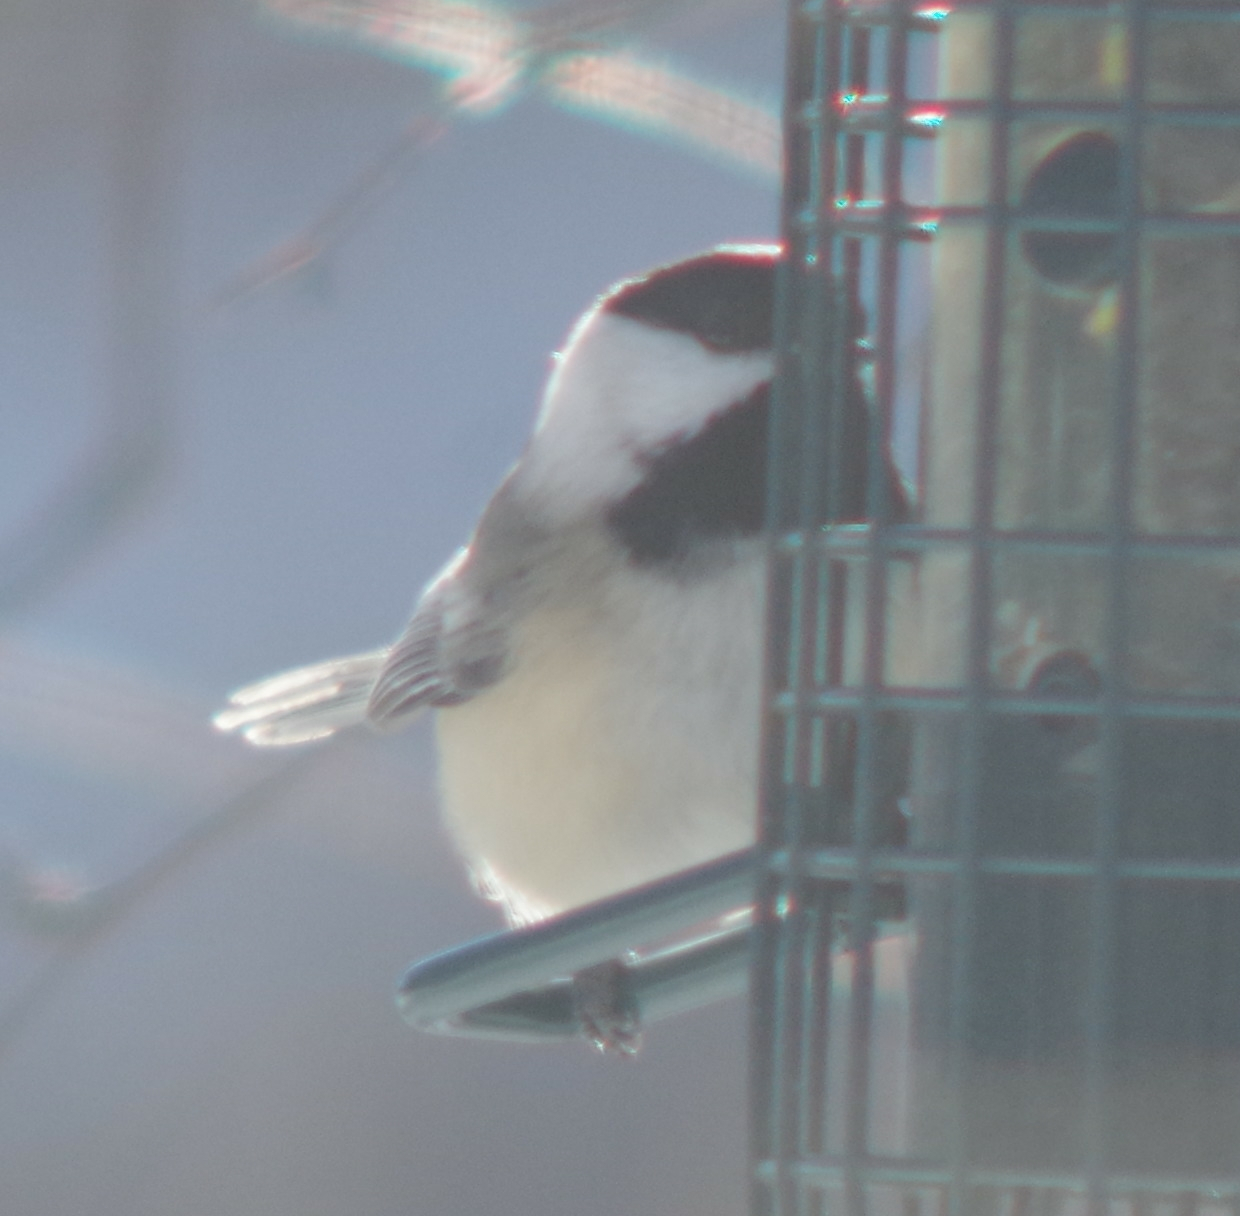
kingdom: Animalia
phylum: Chordata
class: Aves
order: Passeriformes
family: Paridae
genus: Poecile
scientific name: Poecile atricapillus
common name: Black-capped chickadee
